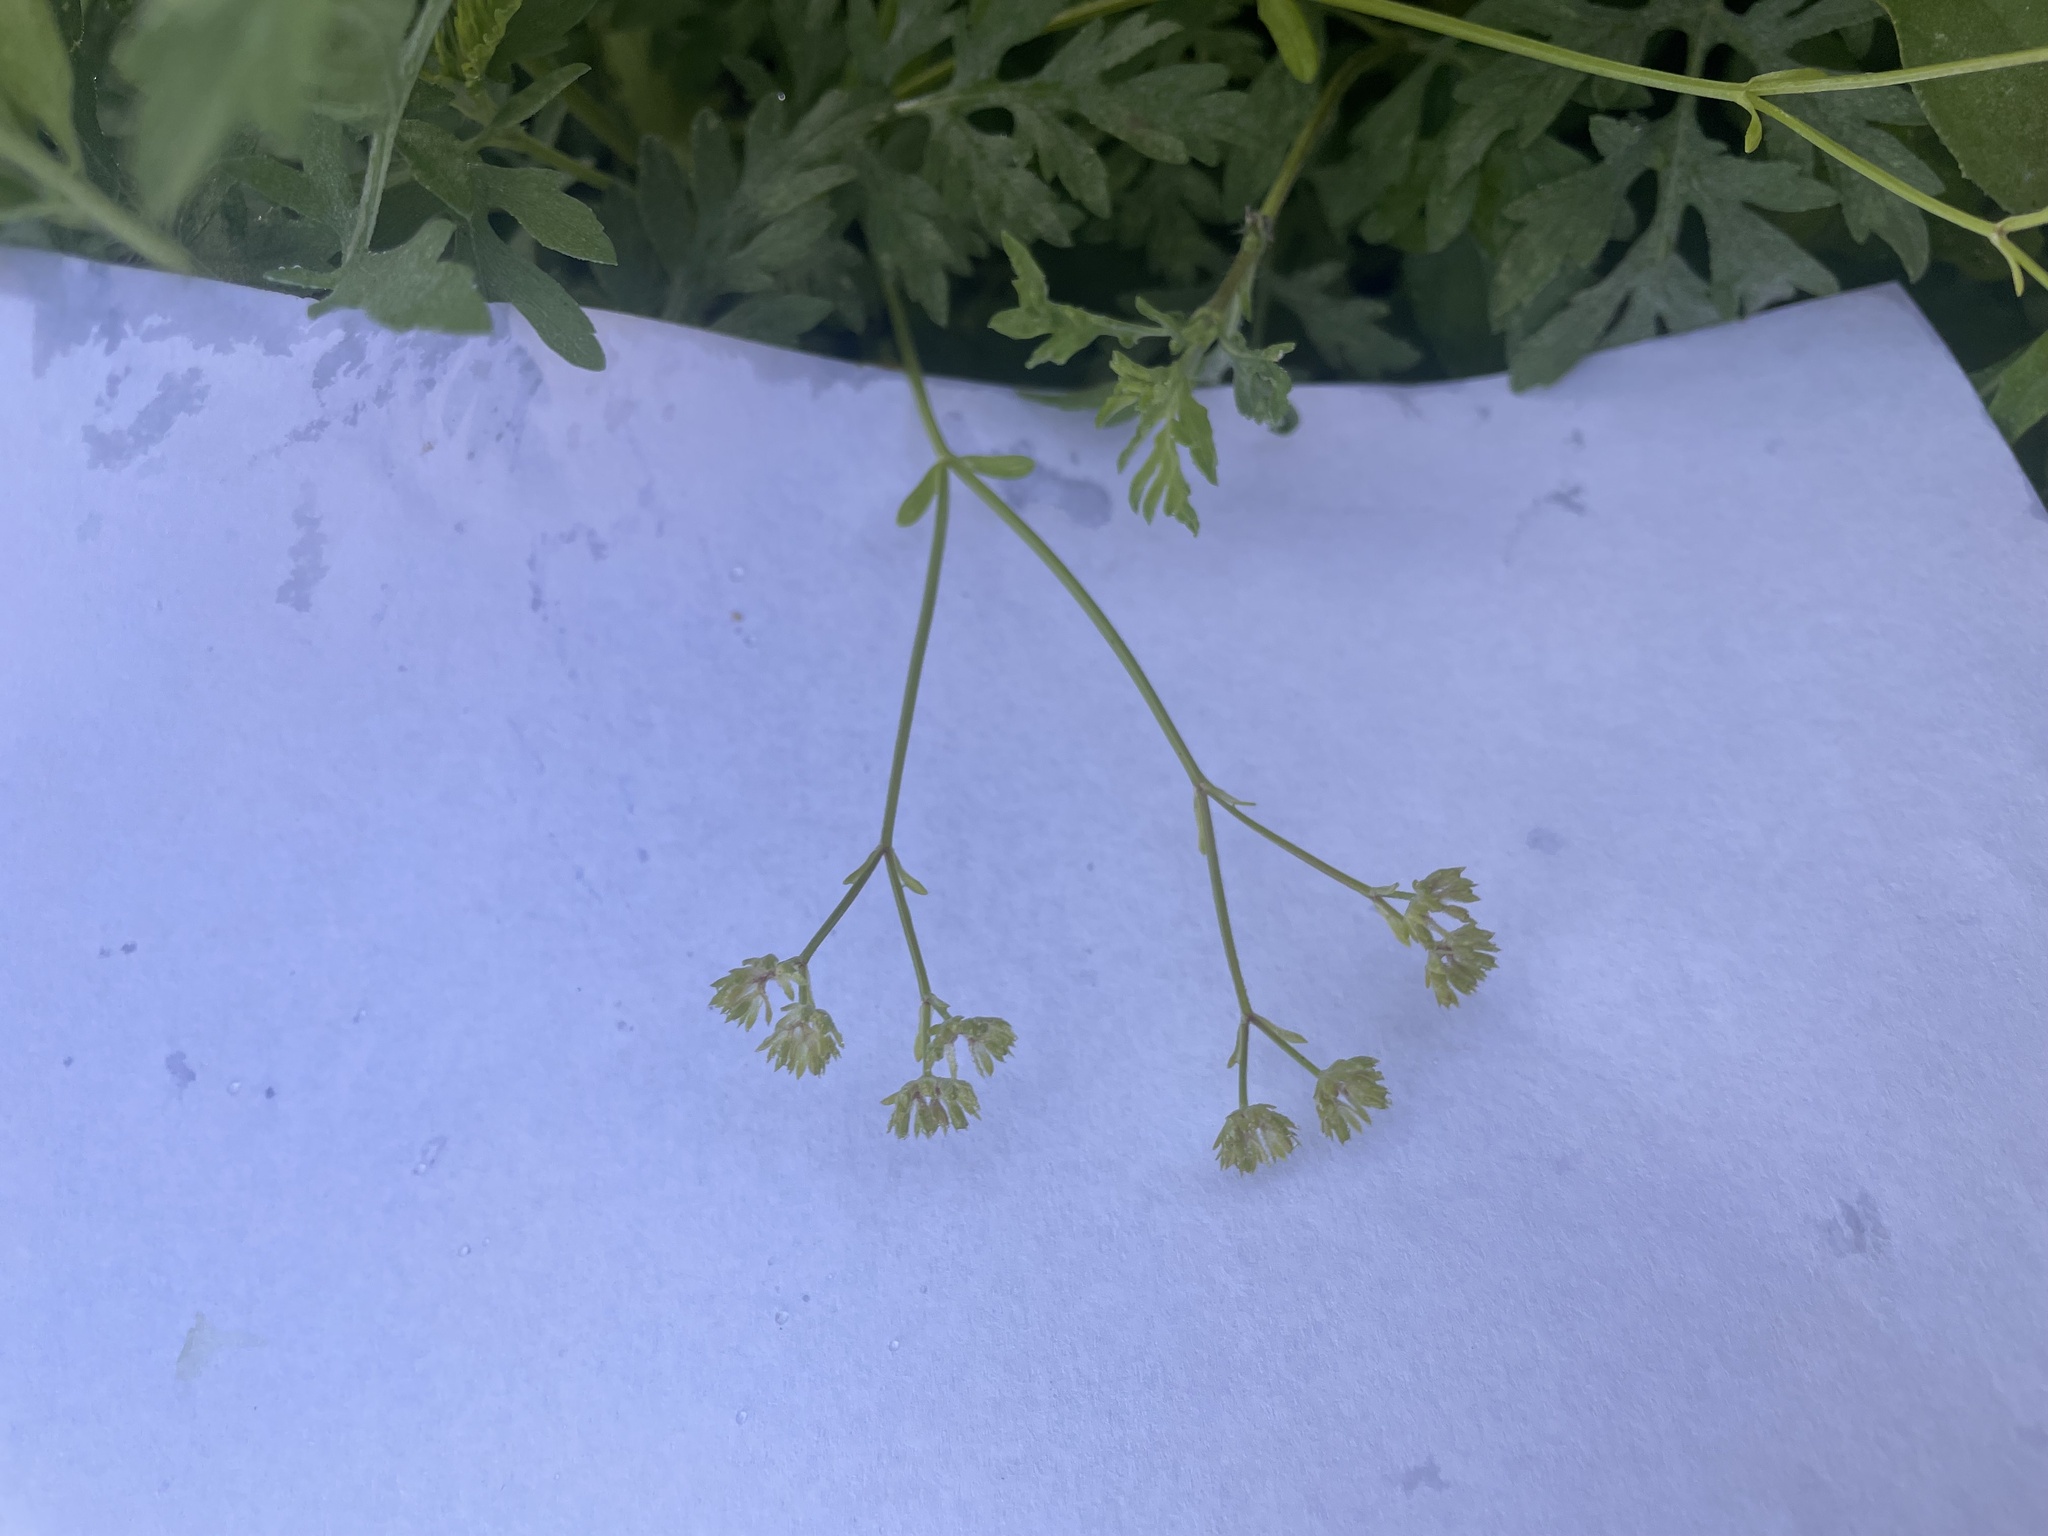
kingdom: Plantae
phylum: Tracheophyta
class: Magnoliopsida
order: Dipsacales
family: Caprifoliaceae
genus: Valerianella
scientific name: Valerianella radiata
